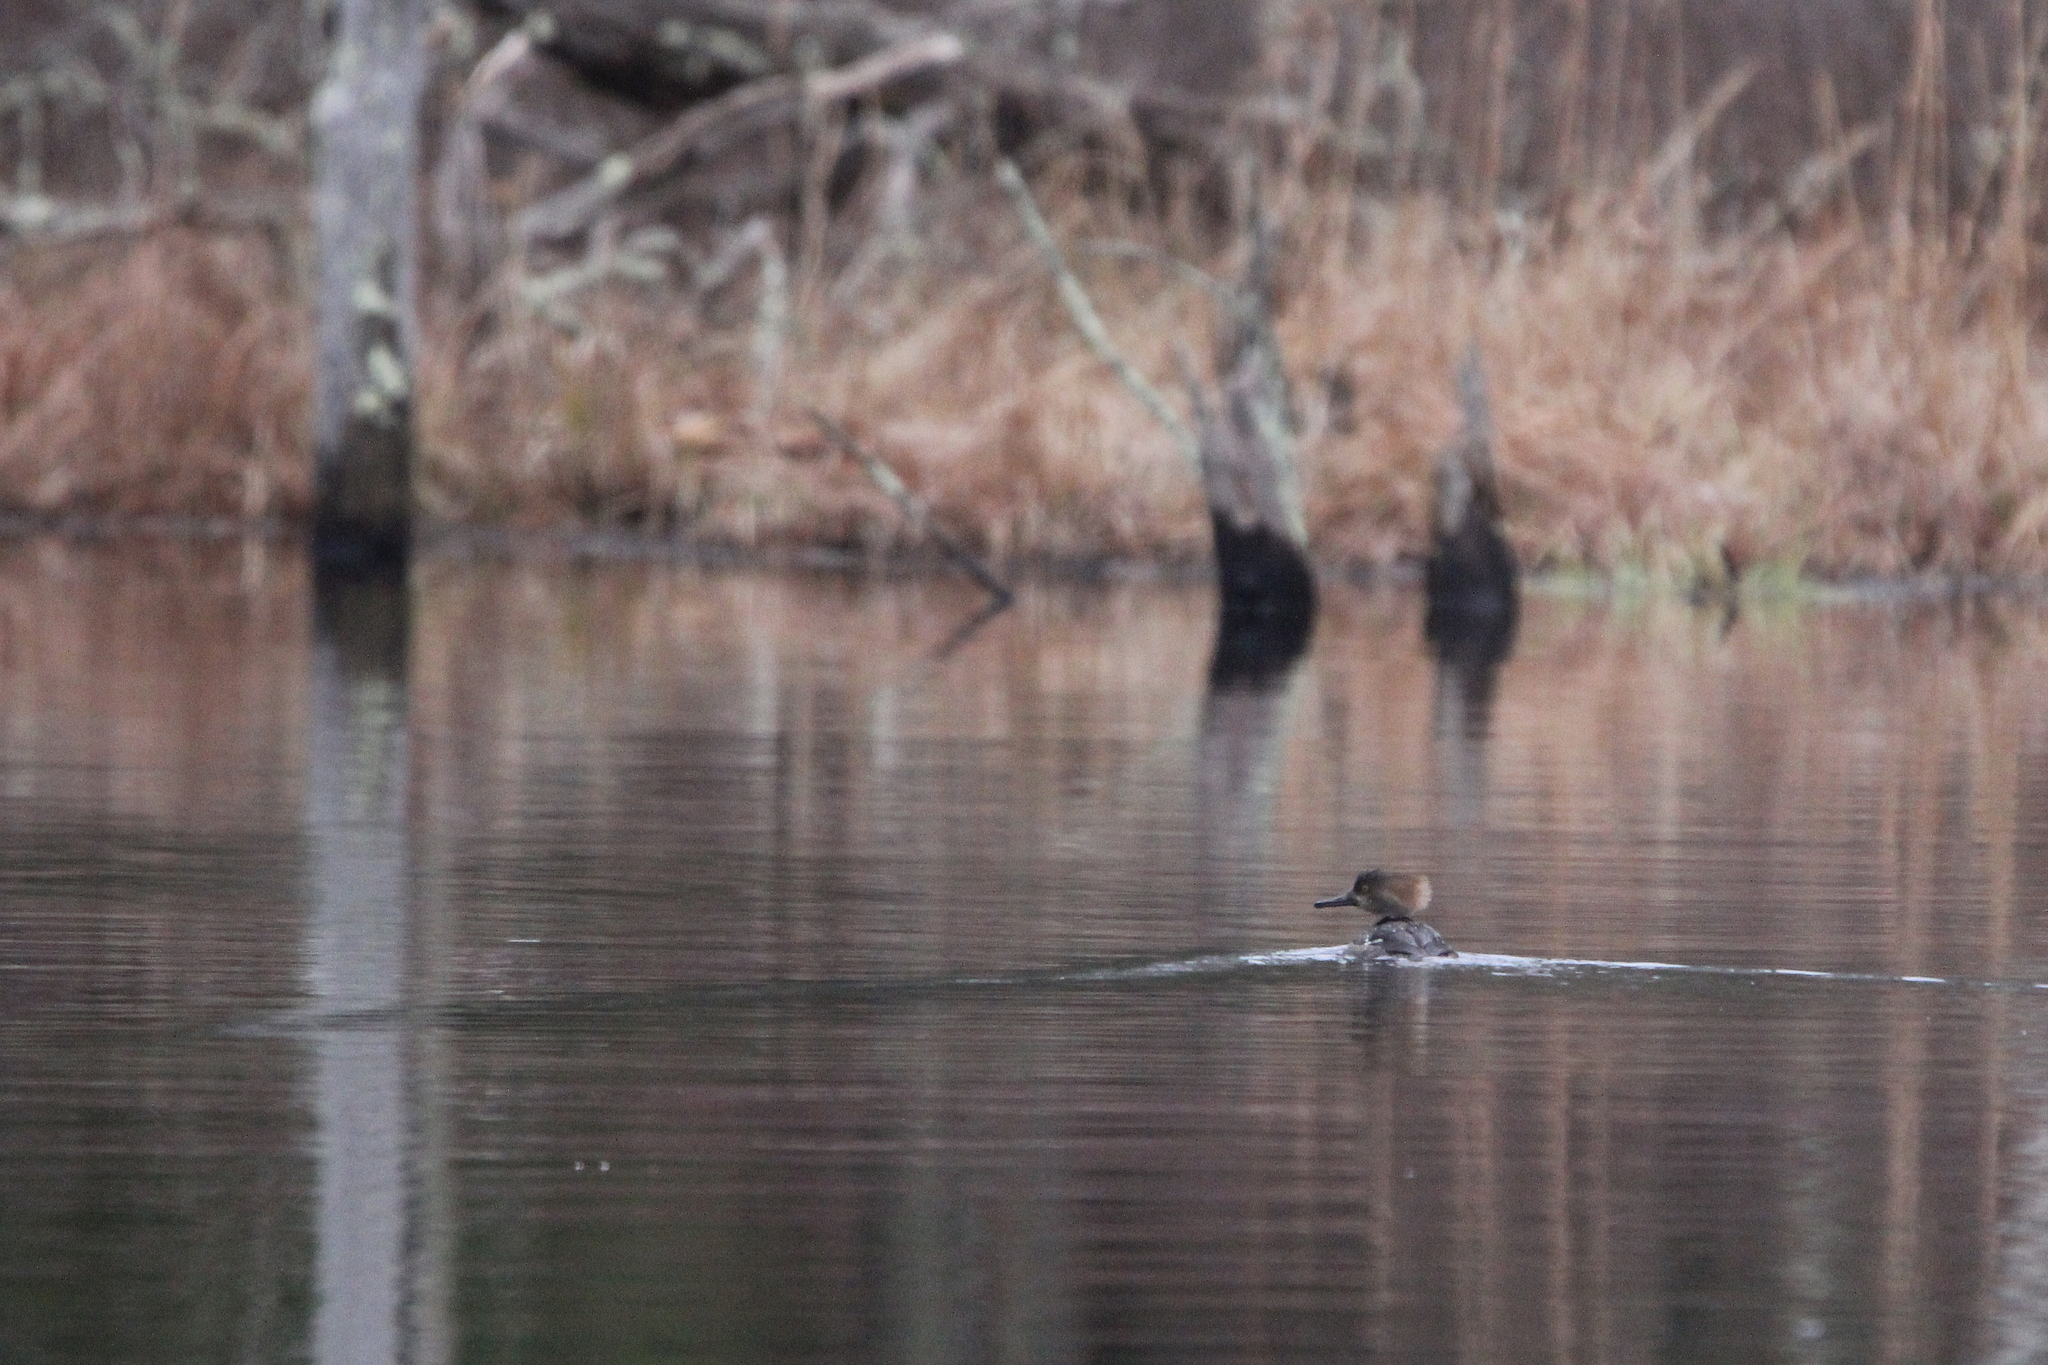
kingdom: Animalia
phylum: Chordata
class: Aves
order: Anseriformes
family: Anatidae
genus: Lophodytes
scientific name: Lophodytes cucullatus
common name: Hooded merganser
